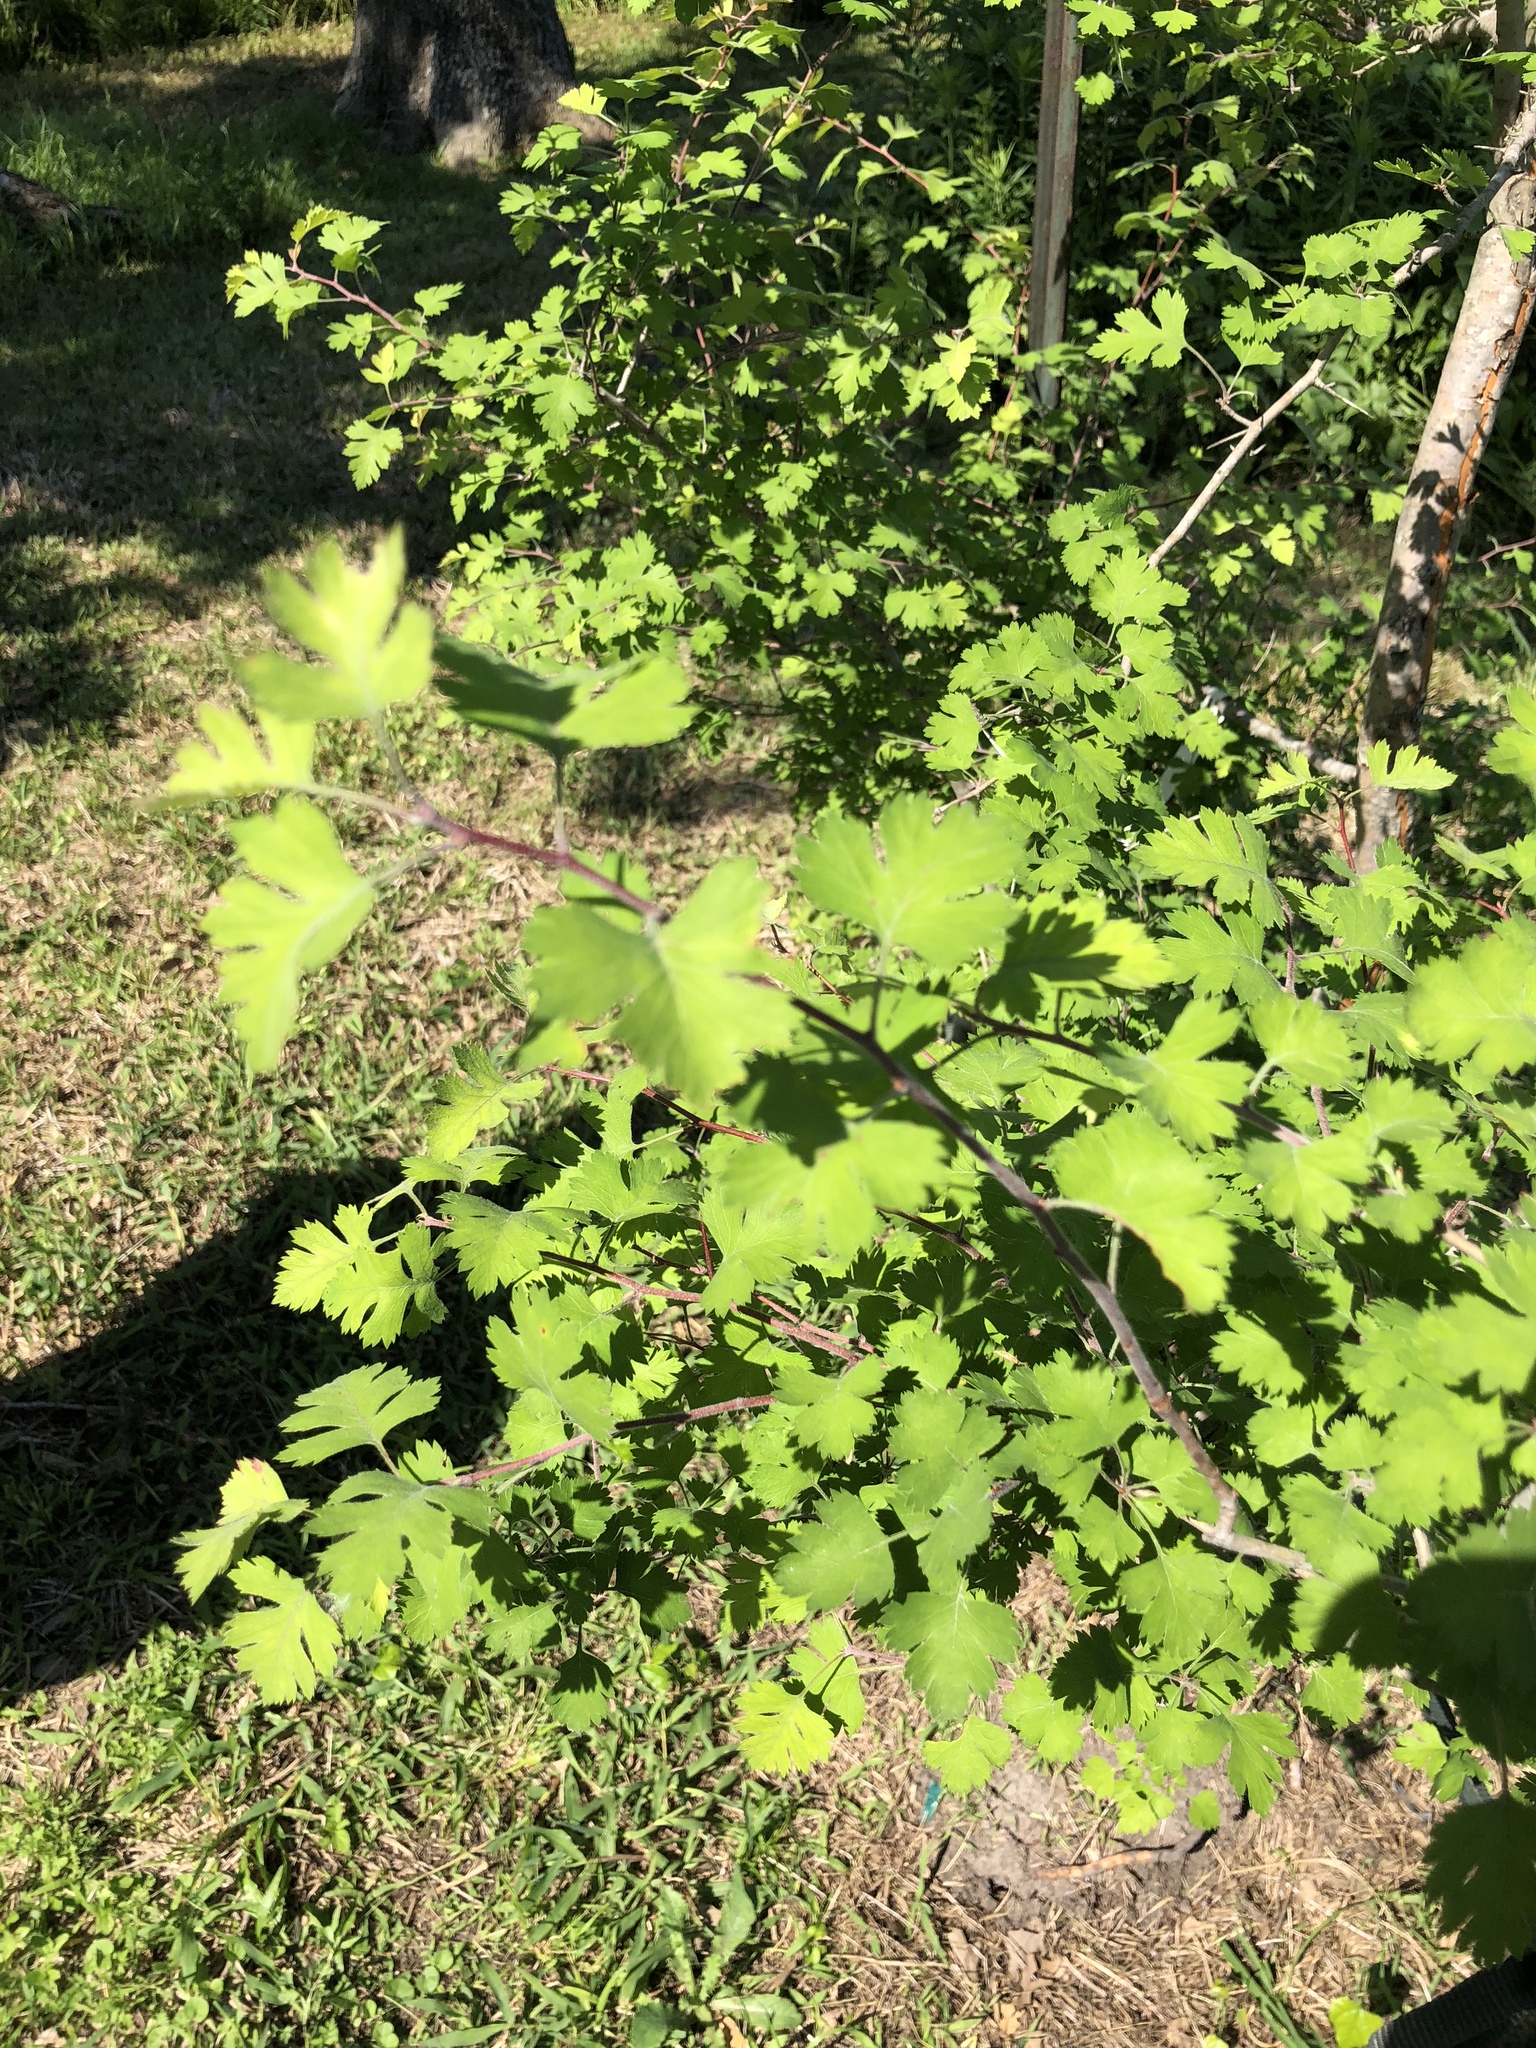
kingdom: Plantae
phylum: Tracheophyta
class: Magnoliopsida
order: Rosales
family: Rosaceae
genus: Crataegus
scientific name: Crataegus marshallii
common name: Parsley-hawthorn
